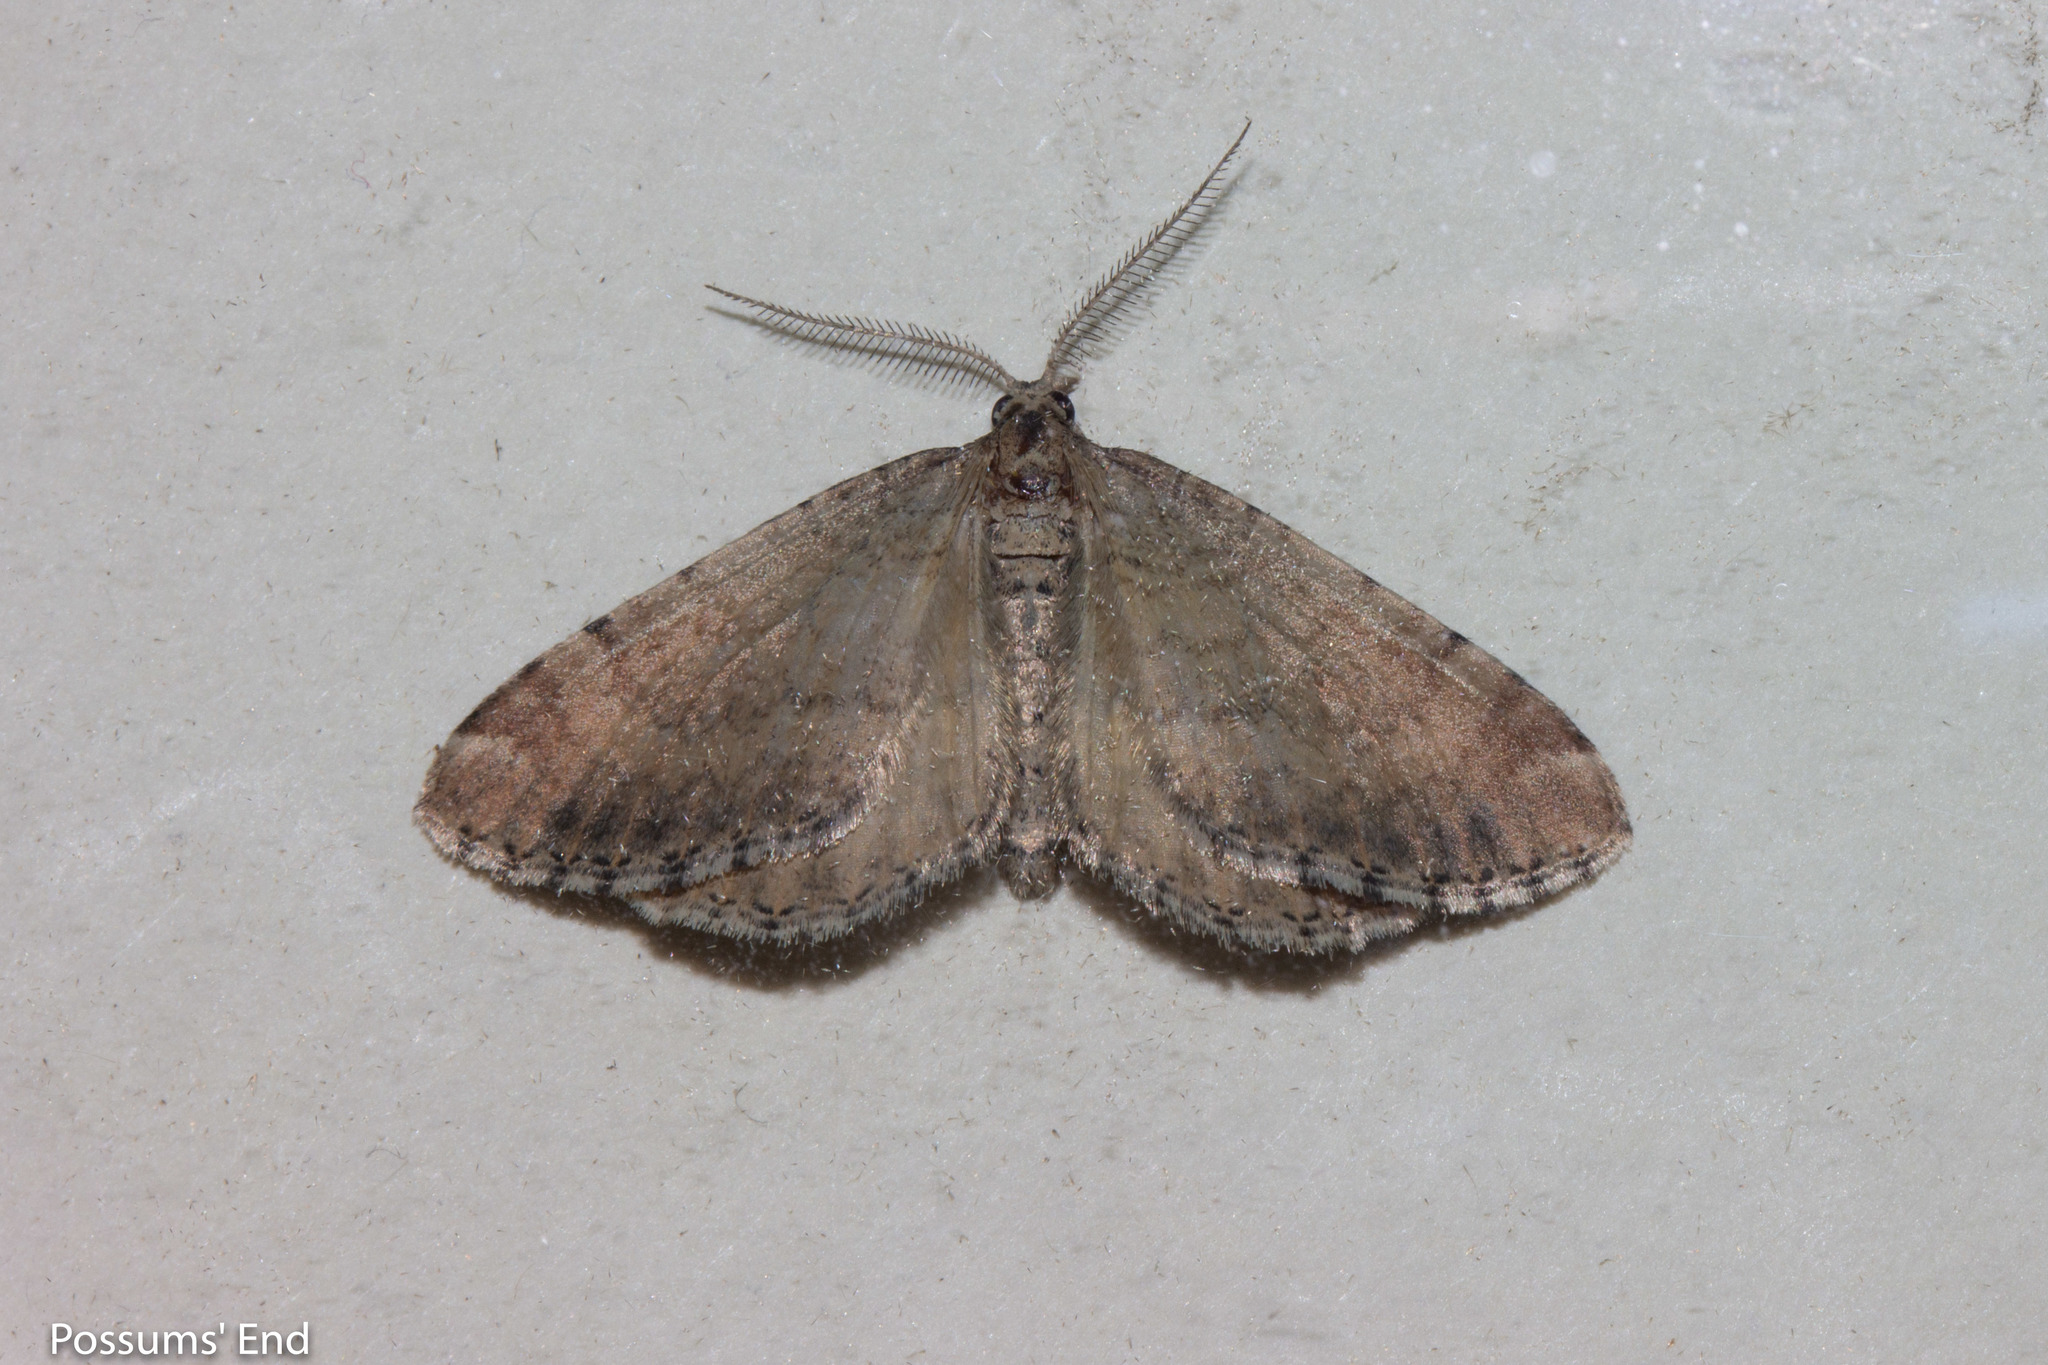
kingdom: Animalia
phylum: Arthropoda
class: Insecta
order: Lepidoptera
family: Geometridae
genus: Asaphodes
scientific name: Asaphodes aegrota
